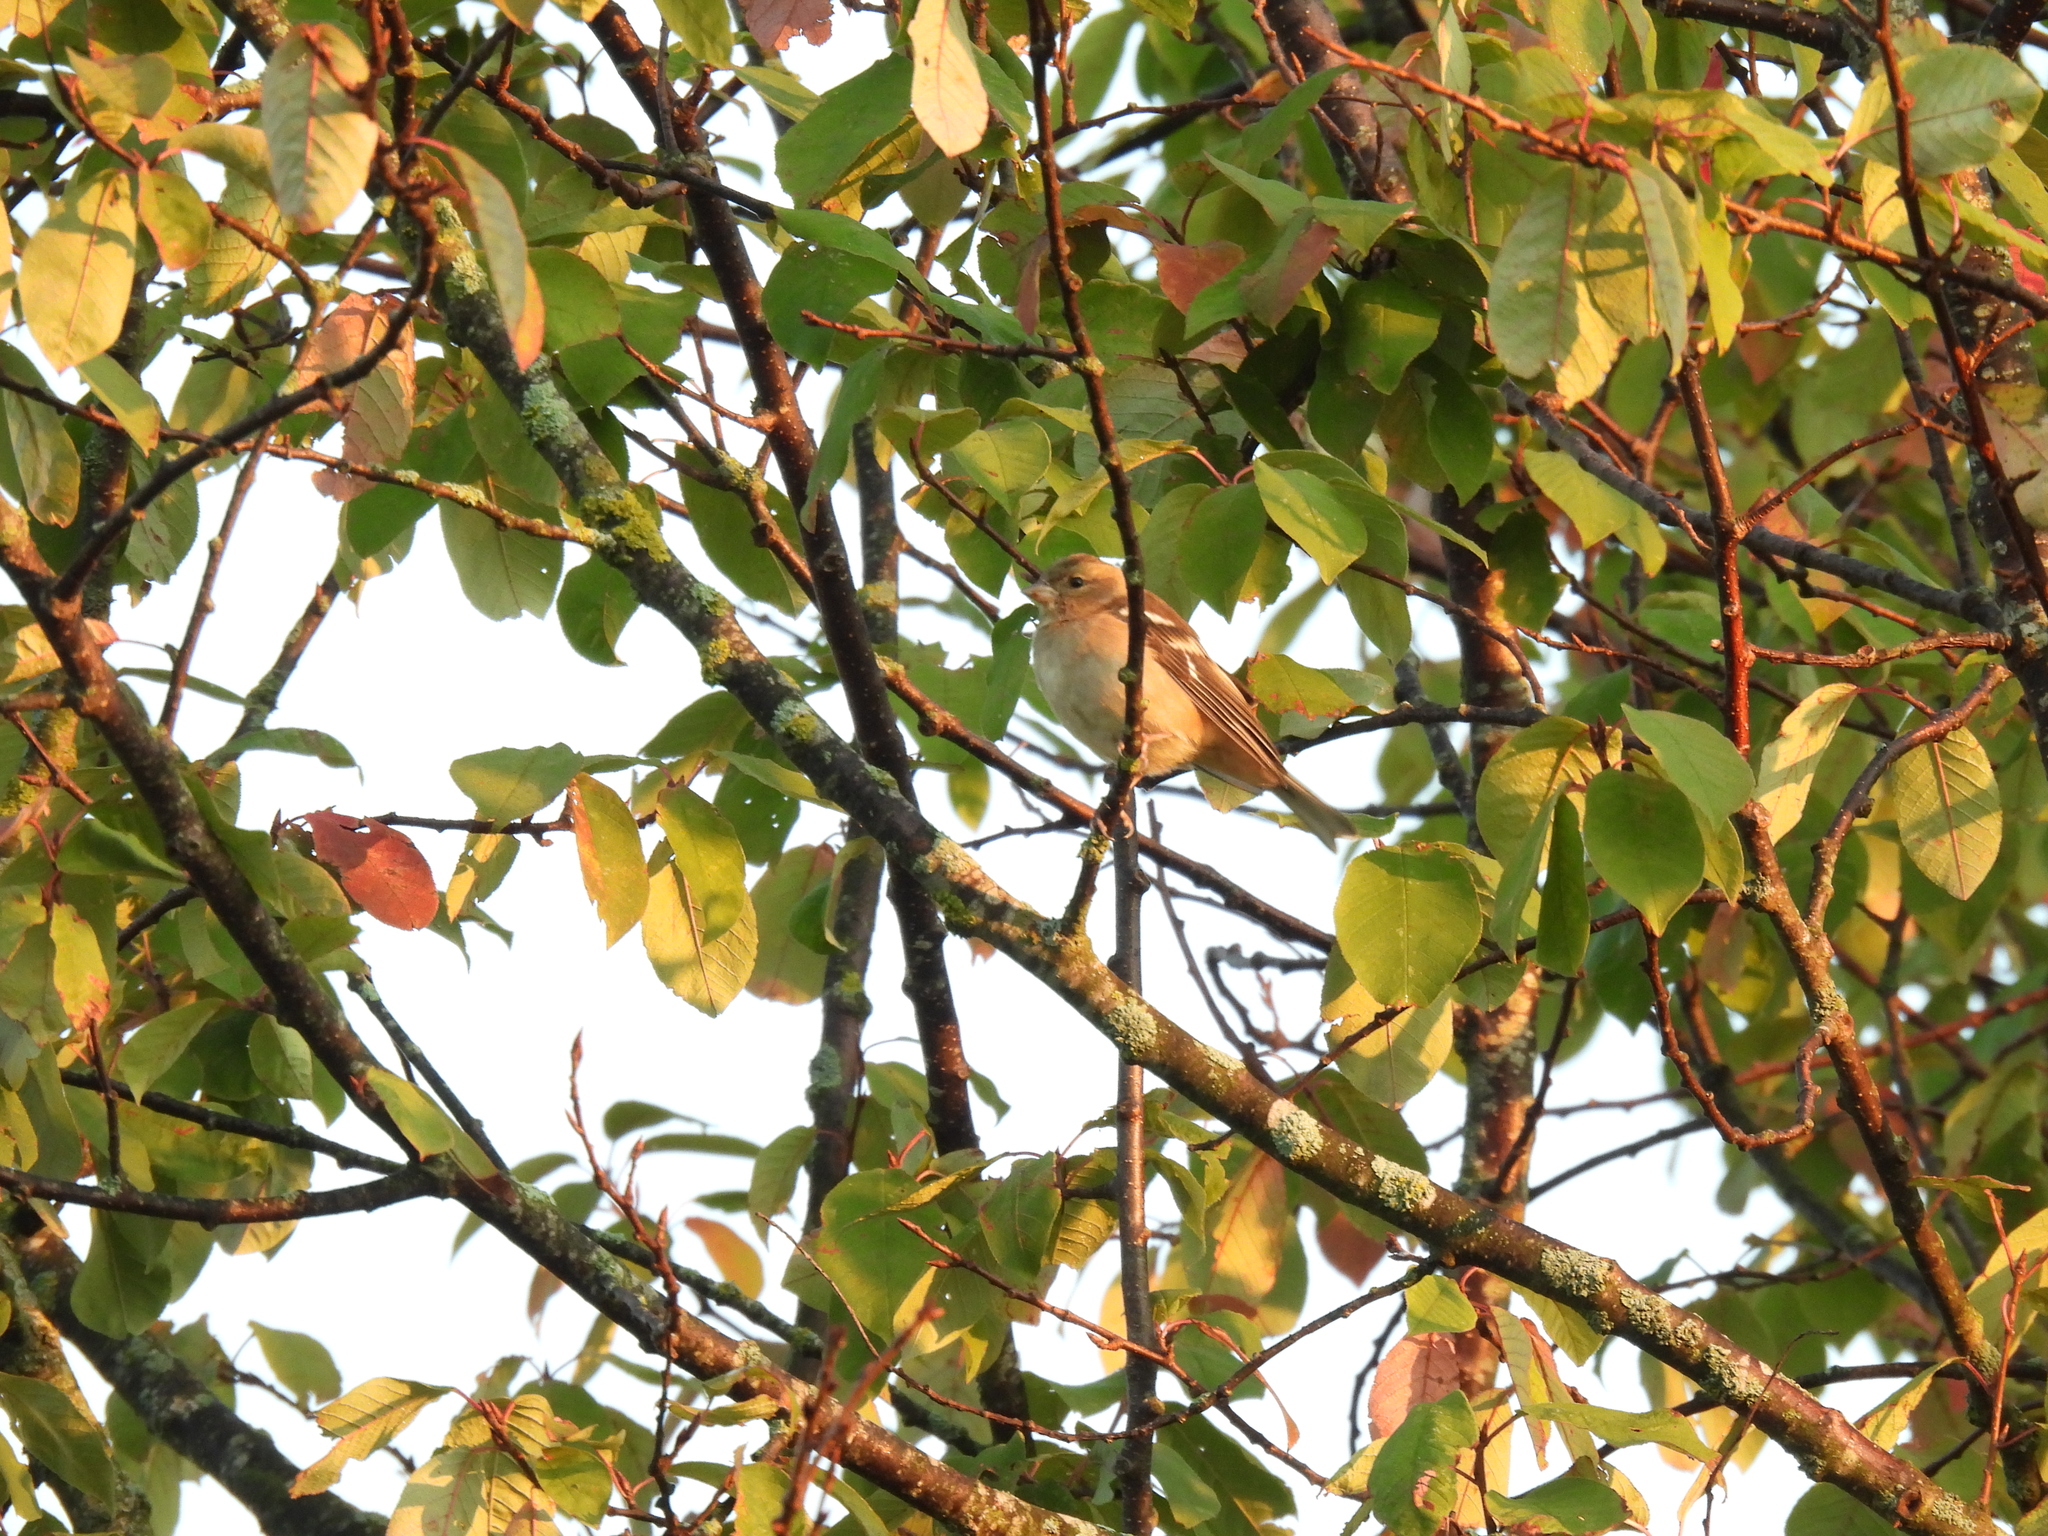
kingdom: Animalia
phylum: Chordata
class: Aves
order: Passeriformes
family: Fringillidae
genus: Fringilla
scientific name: Fringilla coelebs
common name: Common chaffinch
